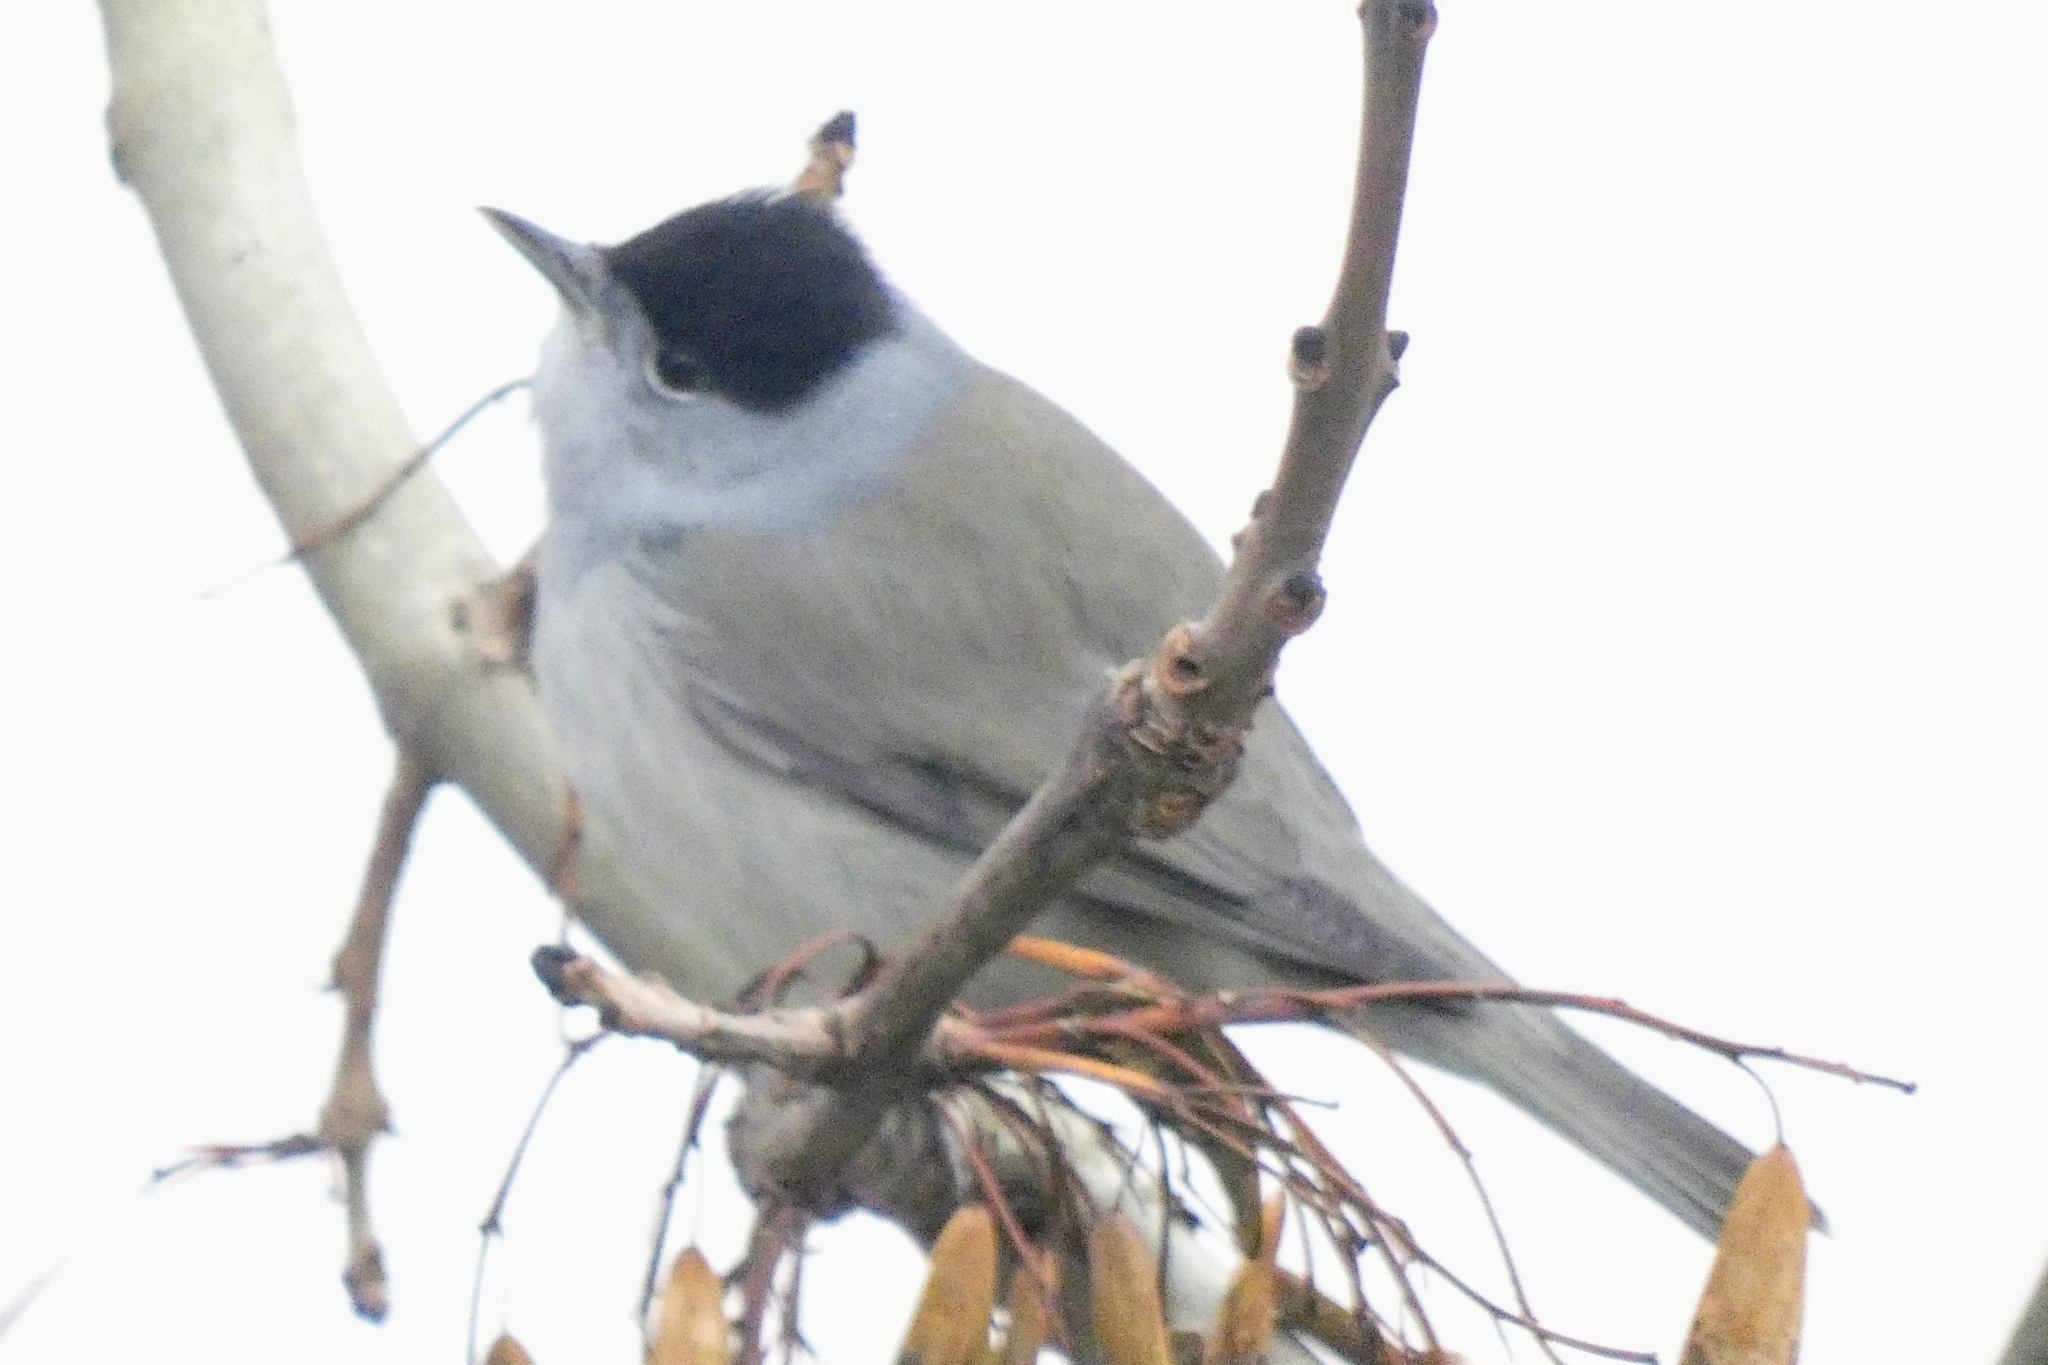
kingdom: Animalia
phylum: Chordata
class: Aves
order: Passeriformes
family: Sylviidae
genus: Sylvia
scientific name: Sylvia atricapilla
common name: Eurasian blackcap
